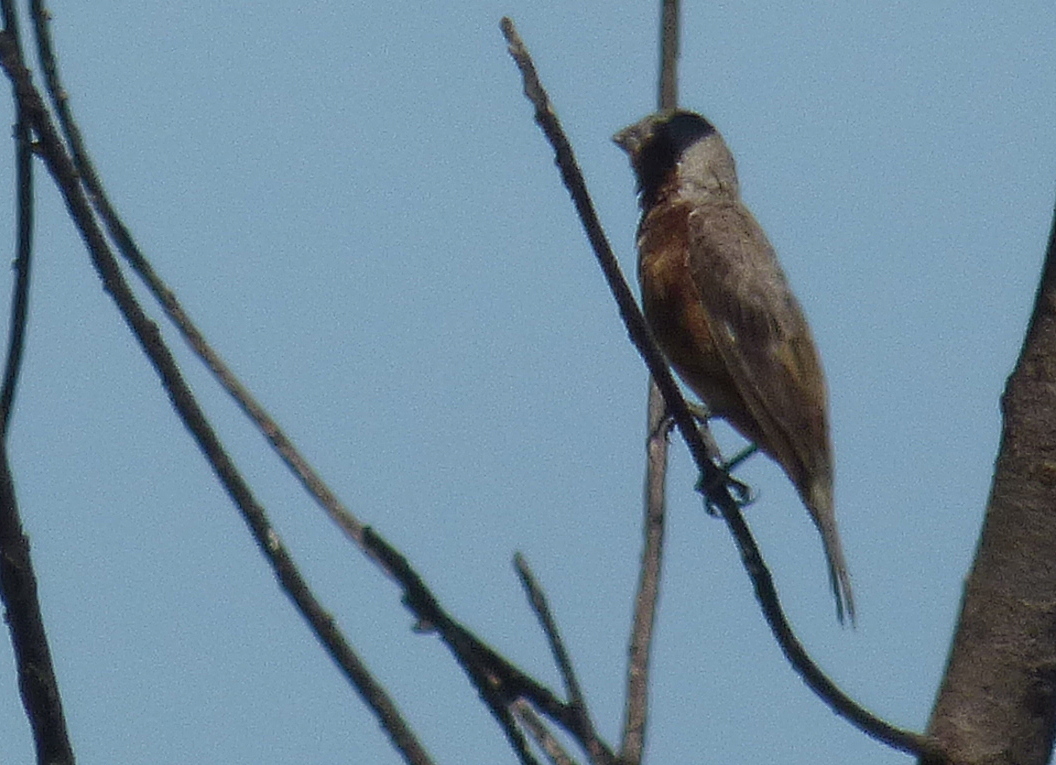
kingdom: Animalia
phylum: Chordata
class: Aves
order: Passeriformes
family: Thraupidae
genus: Sporophila
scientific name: Sporophila hypochroma
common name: Rufous-rumped seedeater
